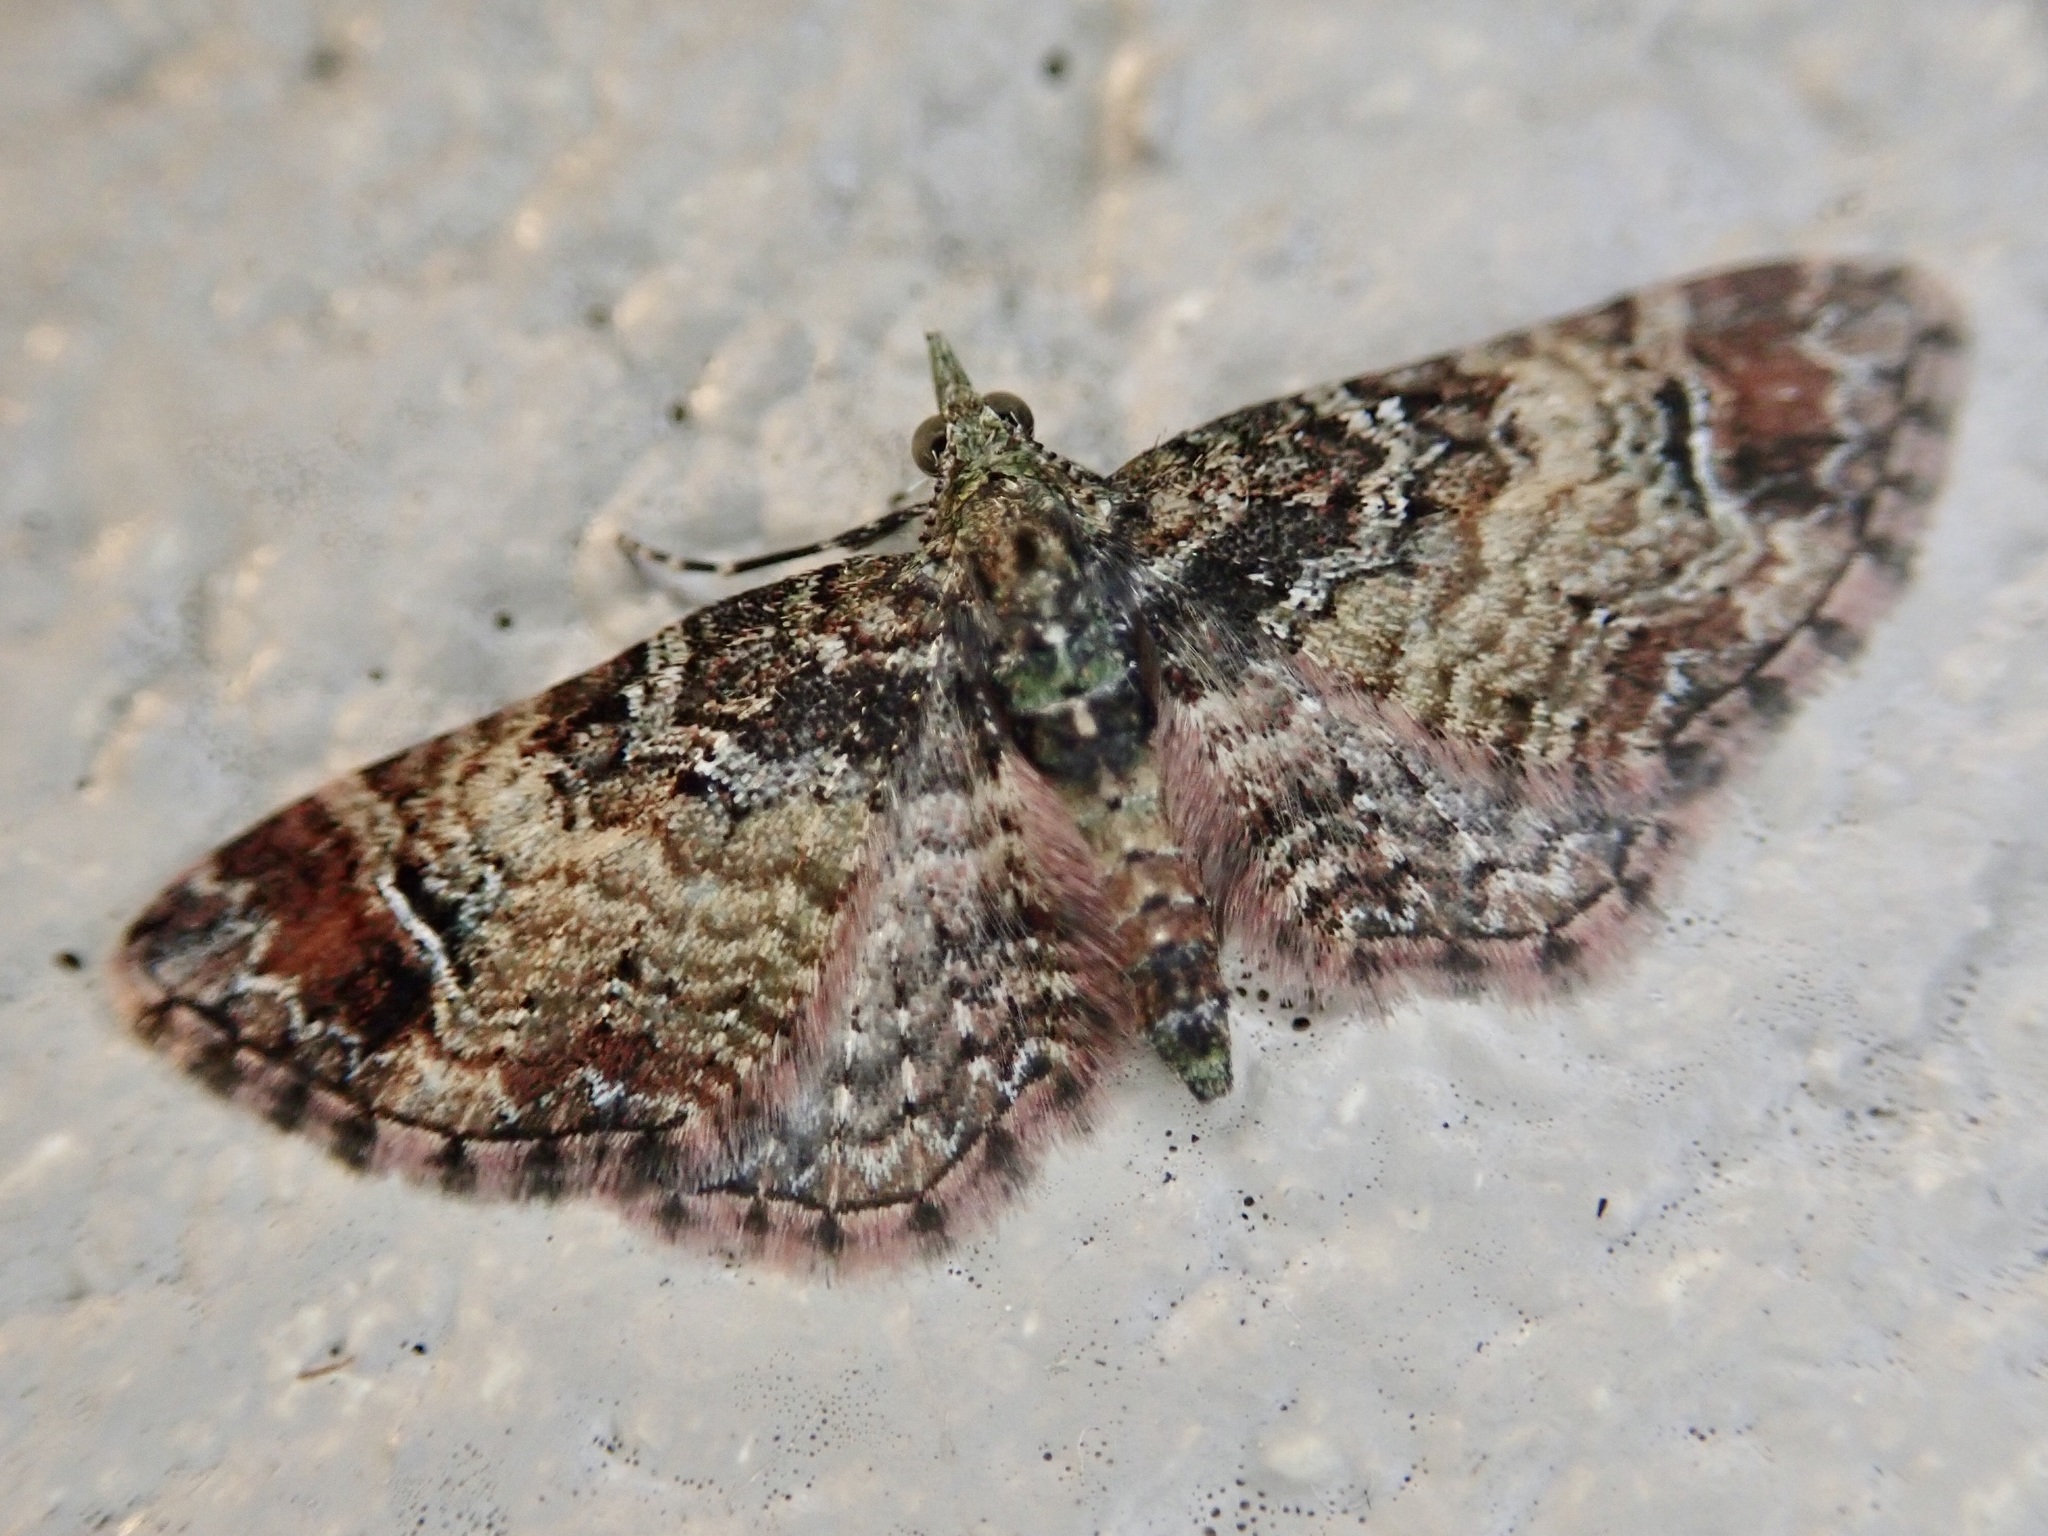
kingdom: Animalia
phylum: Arthropoda
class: Insecta
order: Lepidoptera
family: Geometridae
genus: Pasiphila
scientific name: Pasiphila sandycias
